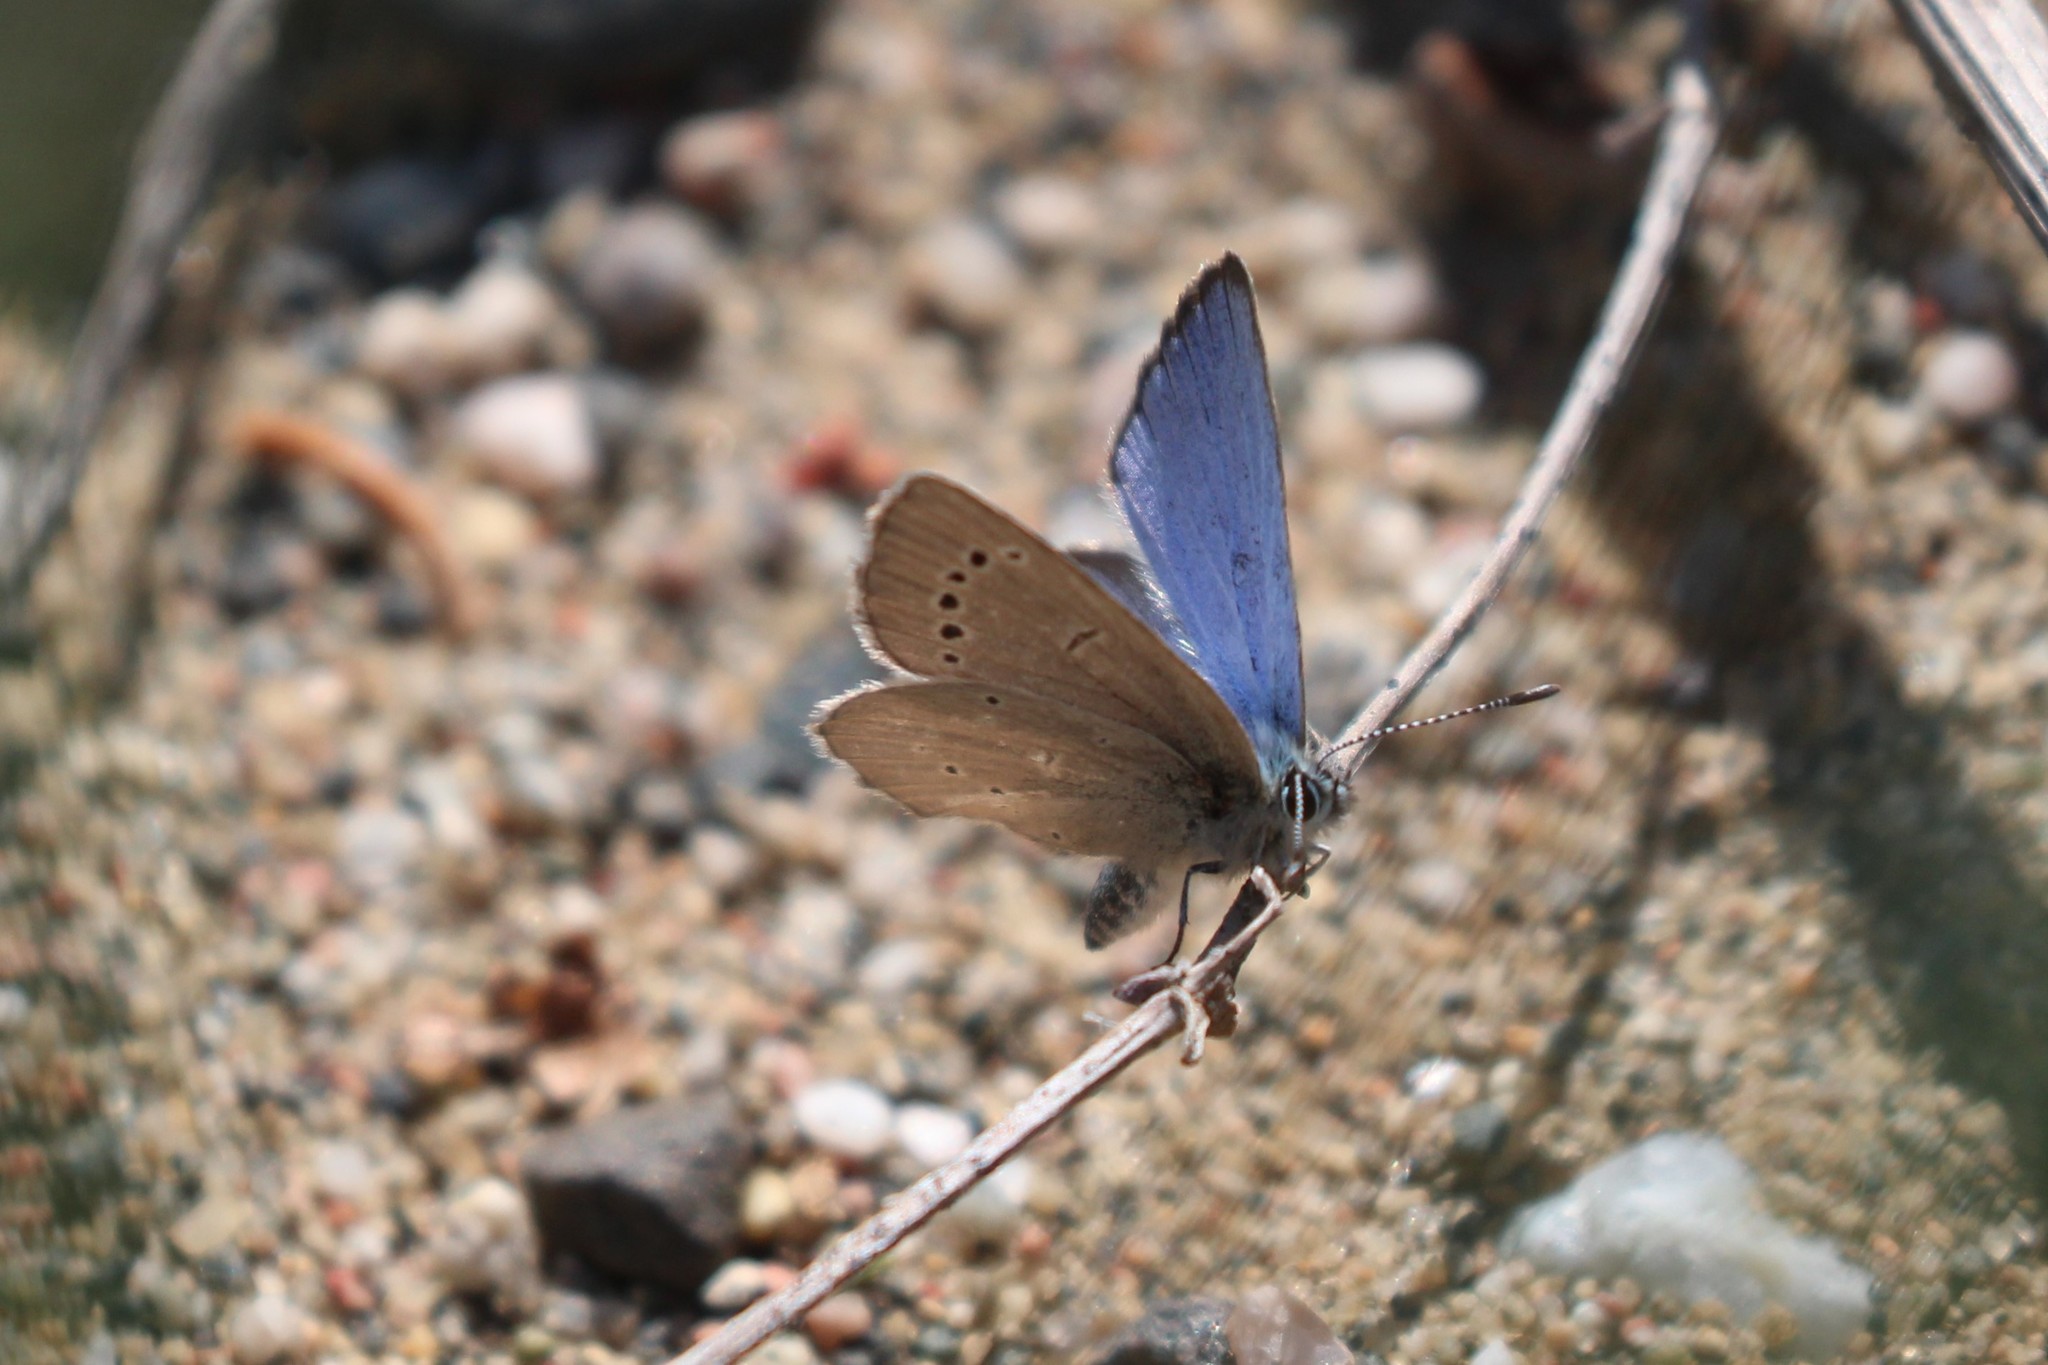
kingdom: Animalia
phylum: Arthropoda
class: Insecta
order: Lepidoptera
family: Lycaenidae
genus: Glaucopsyche
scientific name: Glaucopsyche lygdamus
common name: Silvery blue
